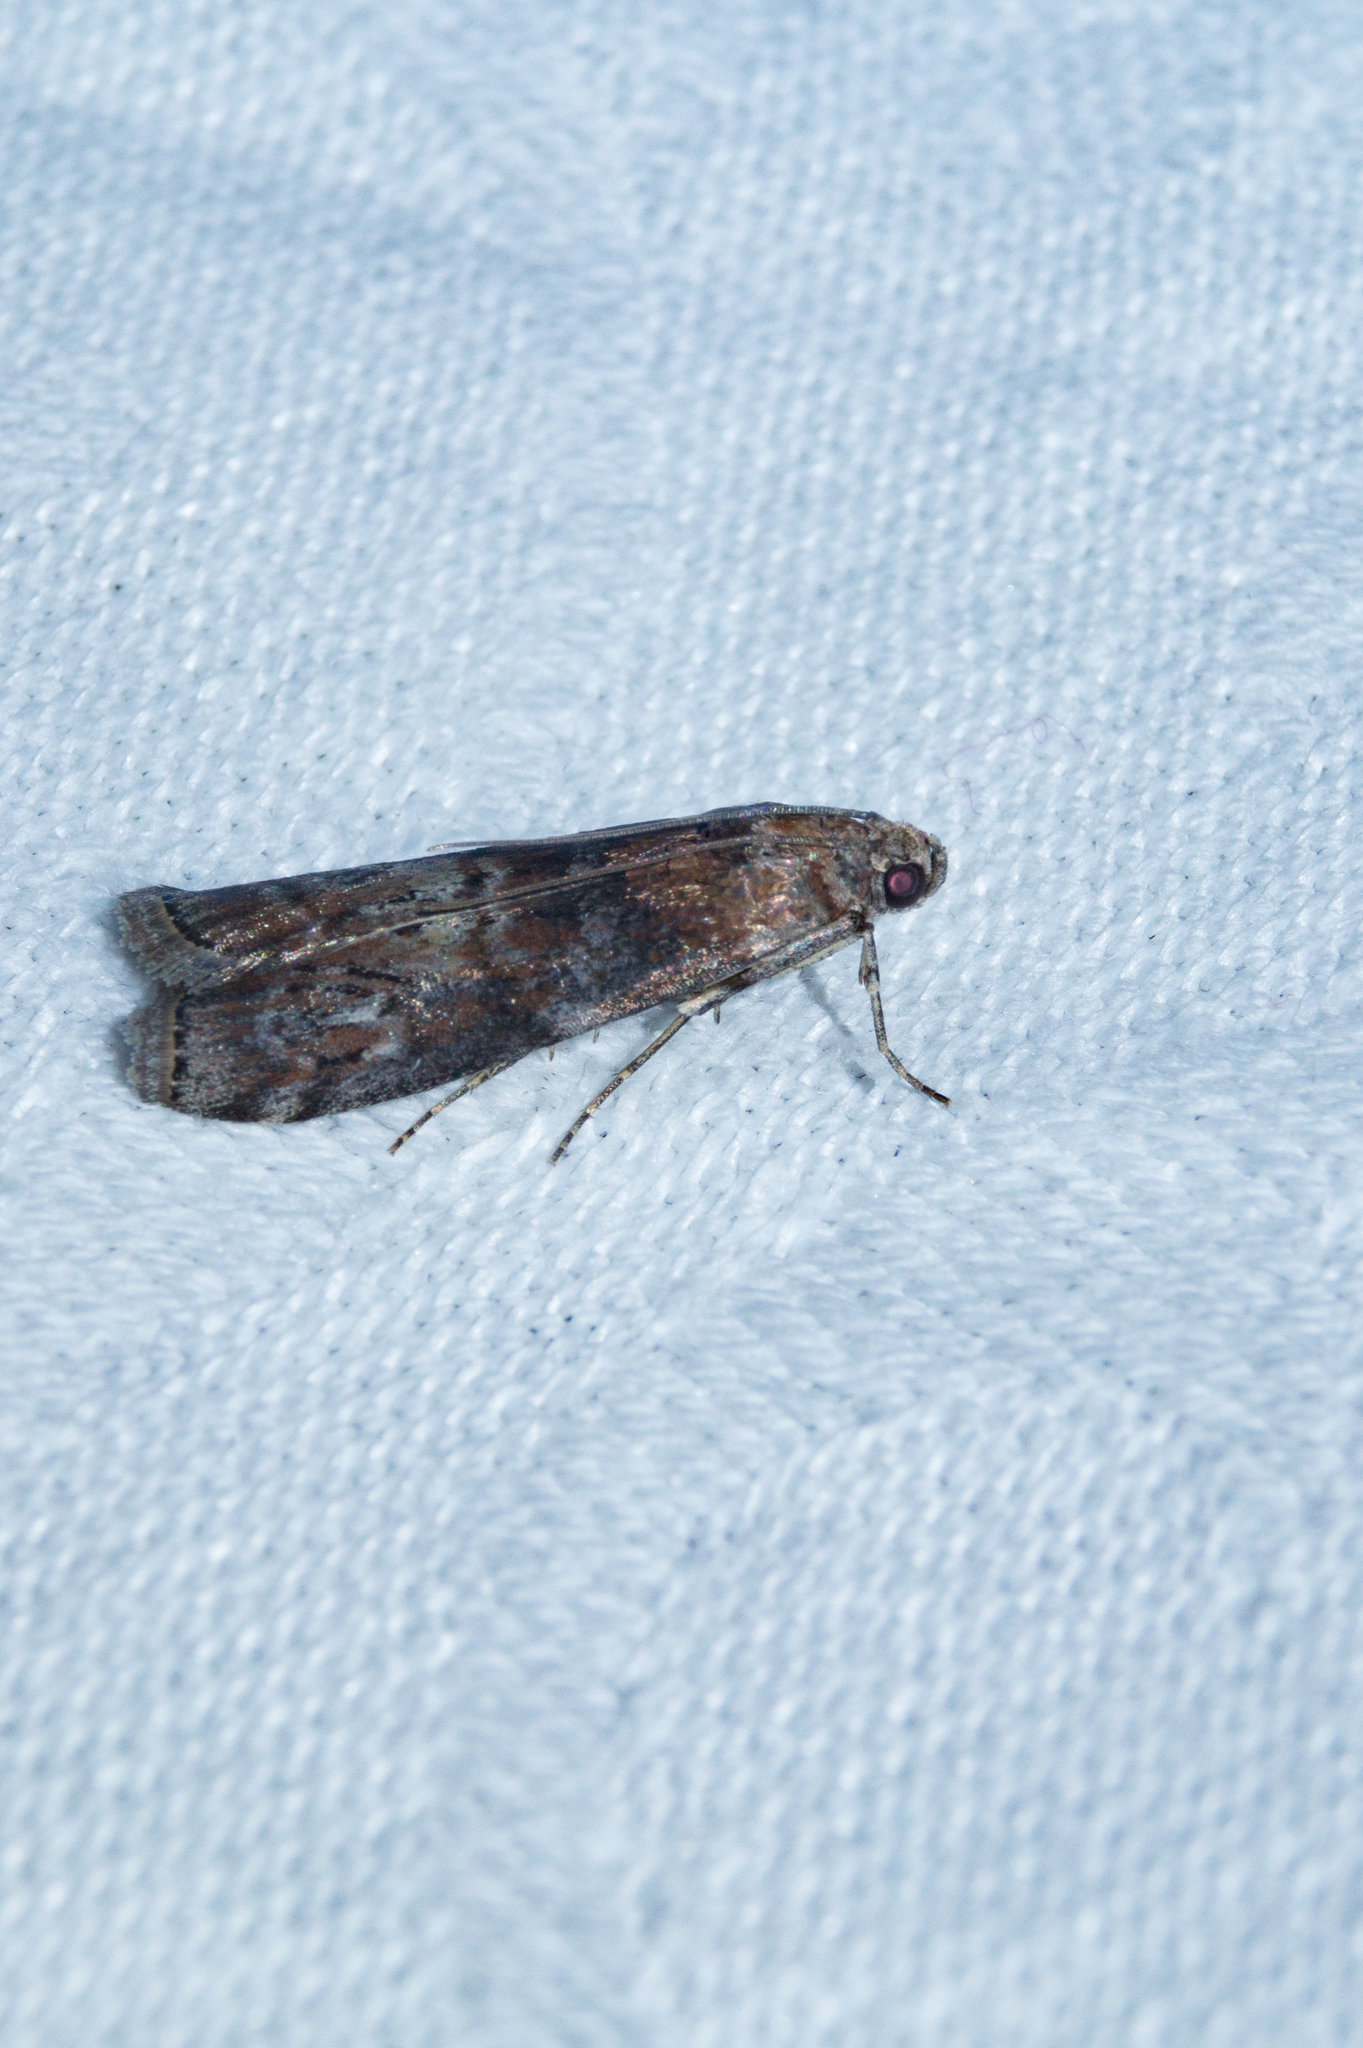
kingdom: Animalia
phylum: Arthropoda
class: Insecta
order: Lepidoptera
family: Pyralidae
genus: Phycita
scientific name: Phycita roborella
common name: Dotted oak knot-horn
